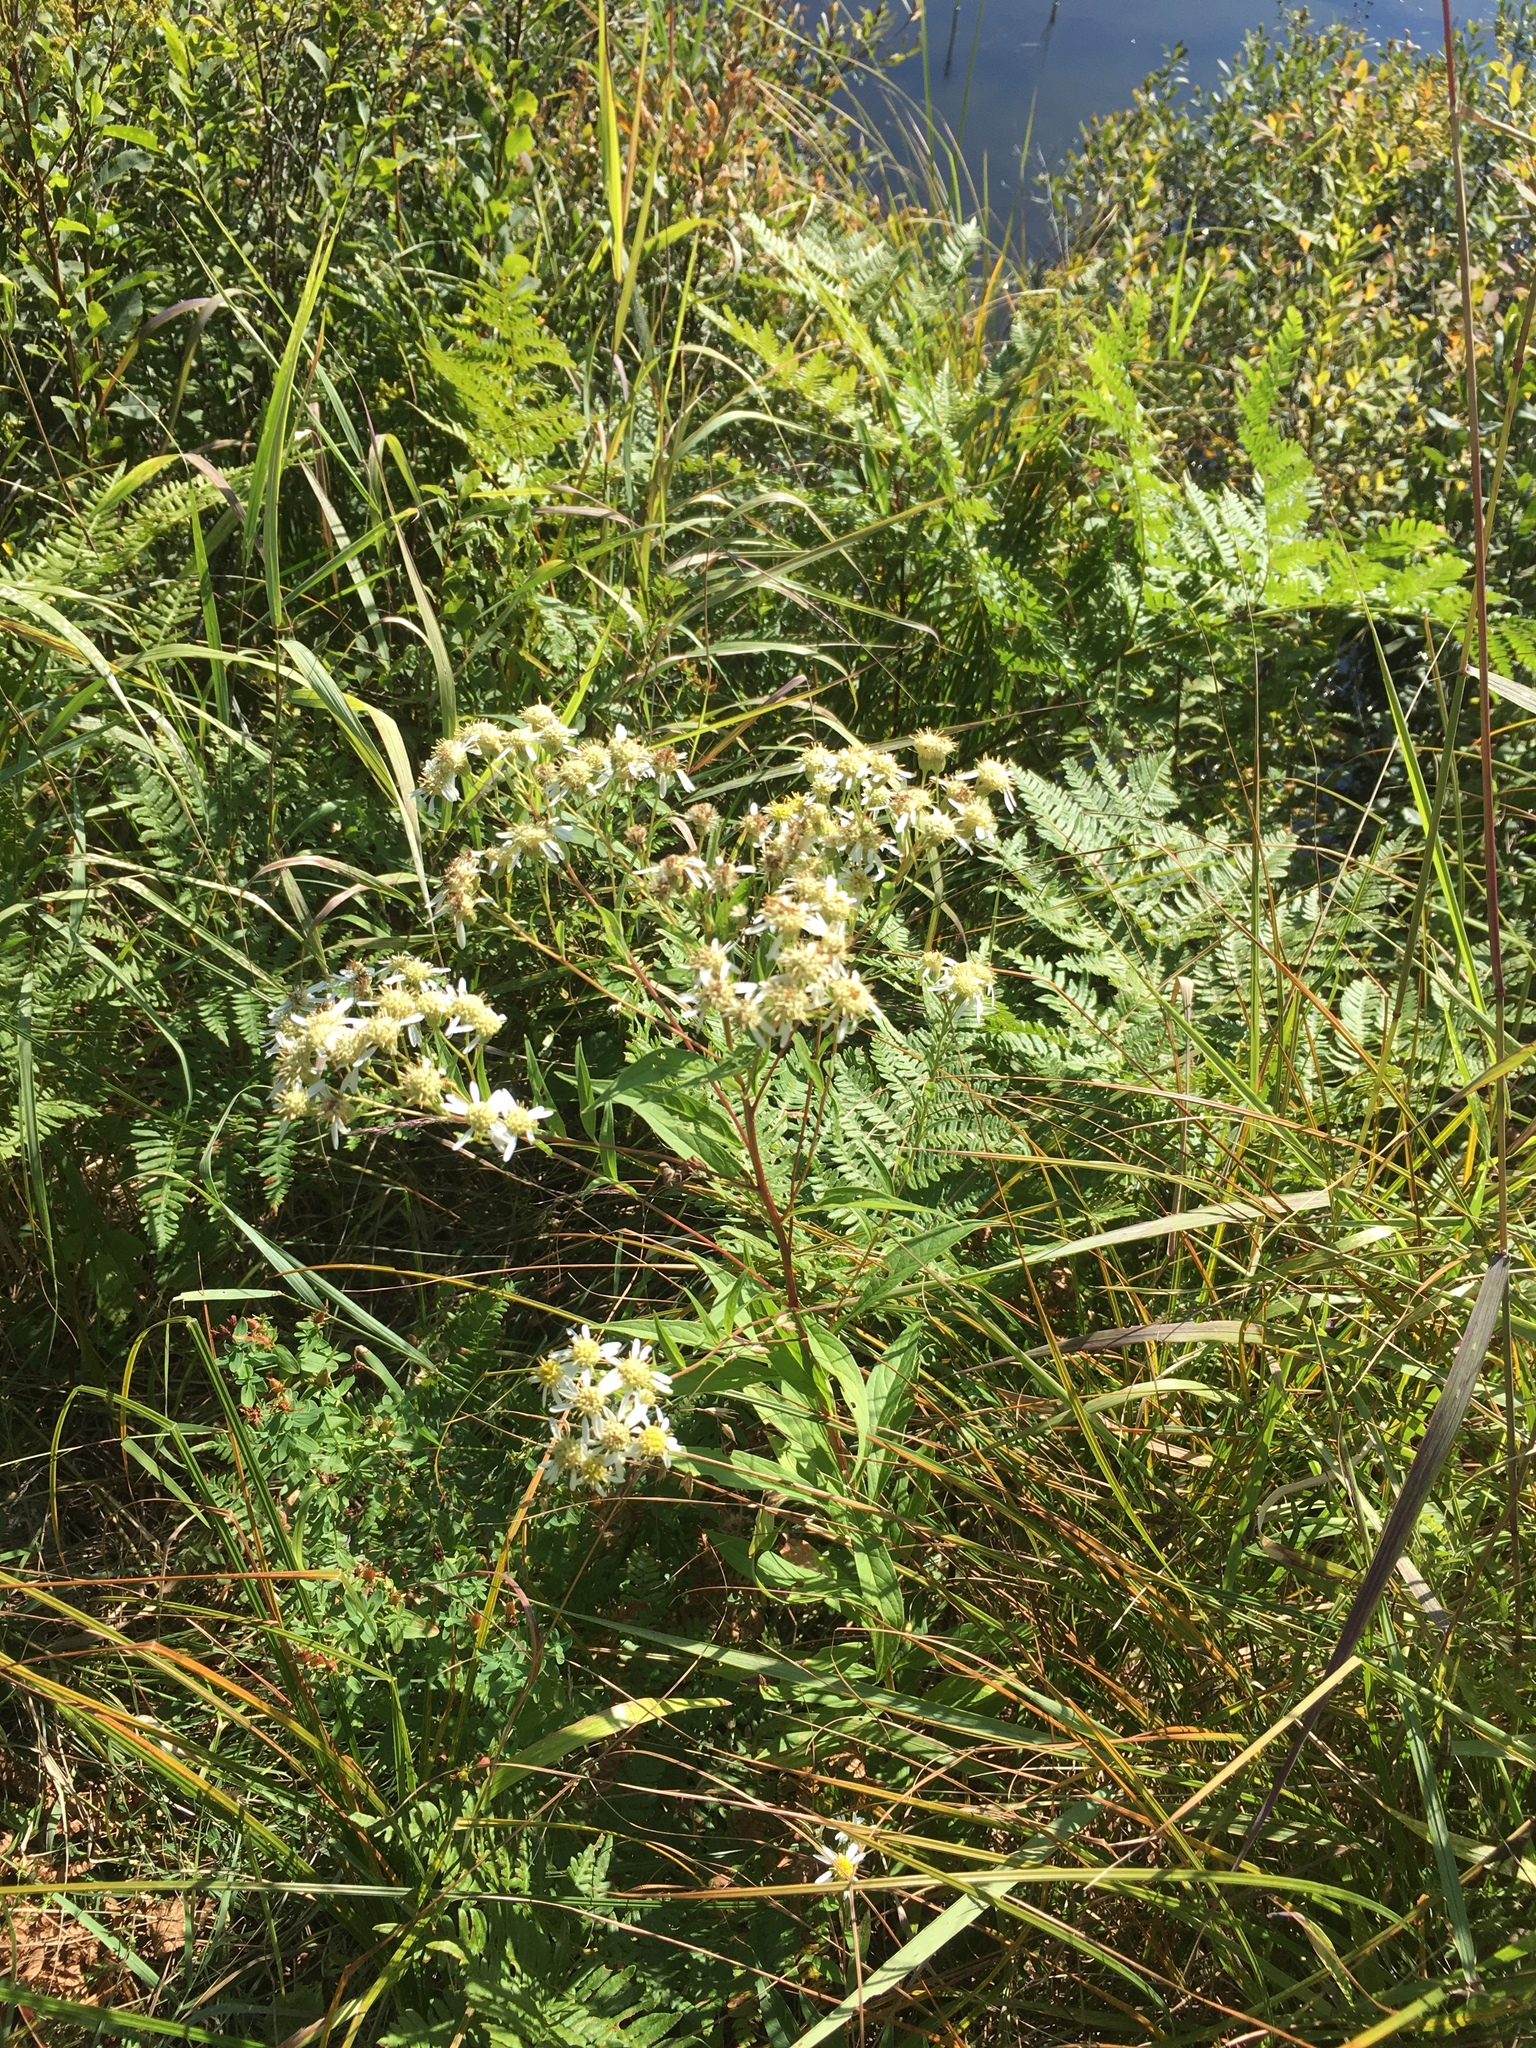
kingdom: Plantae
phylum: Tracheophyta
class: Magnoliopsida
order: Asterales
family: Asteraceae
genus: Doellingeria
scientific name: Doellingeria umbellata
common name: Flat-top white aster
